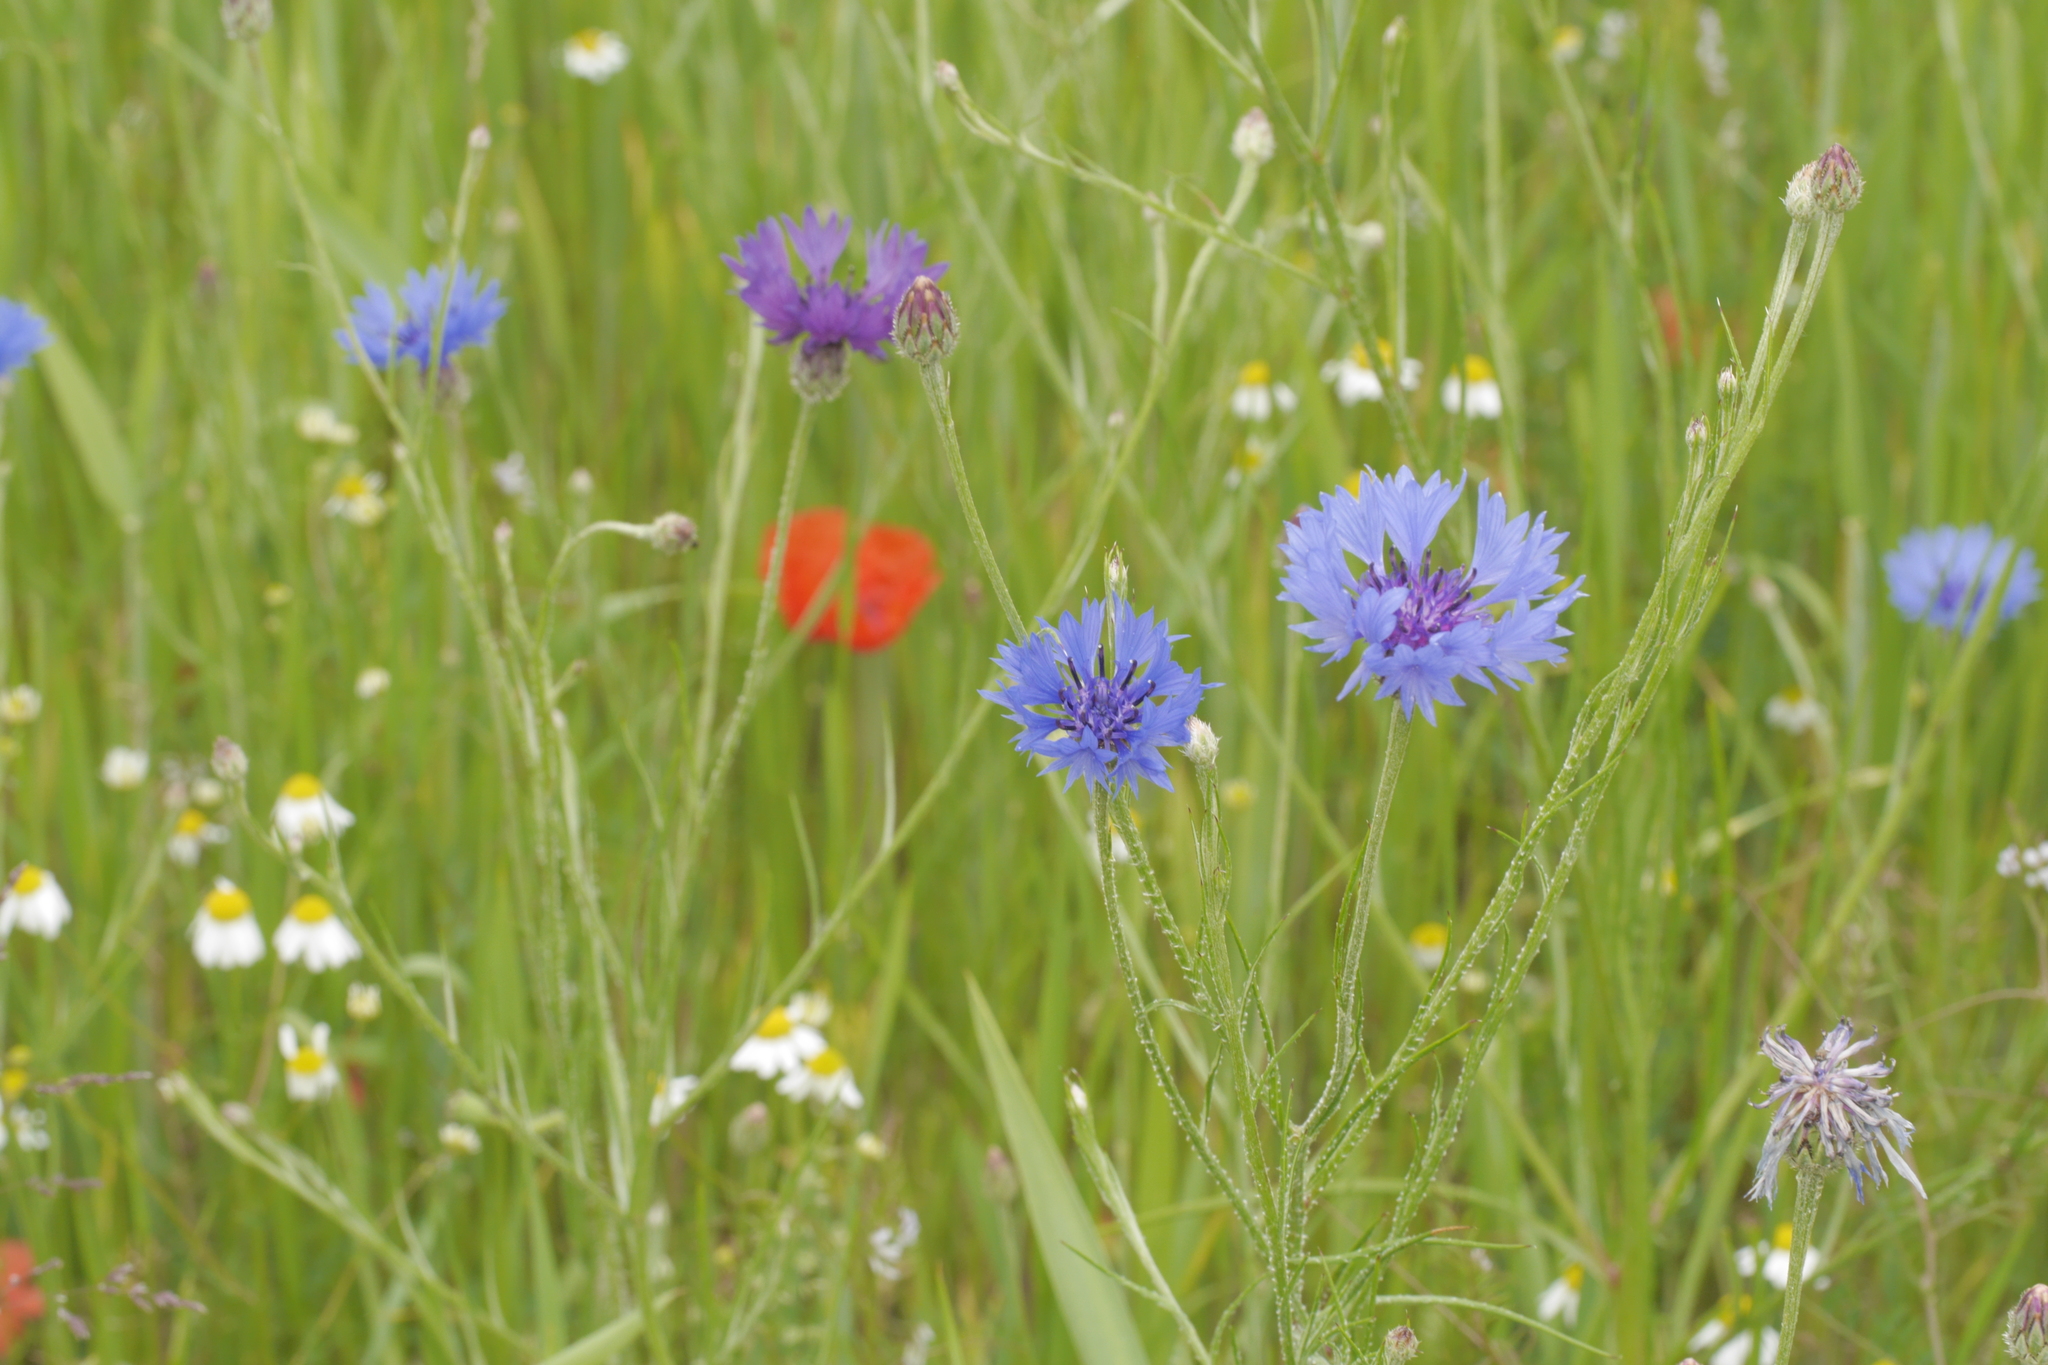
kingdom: Plantae
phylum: Tracheophyta
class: Magnoliopsida
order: Asterales
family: Asteraceae
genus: Centaurea
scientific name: Centaurea cyanus
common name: Cornflower
